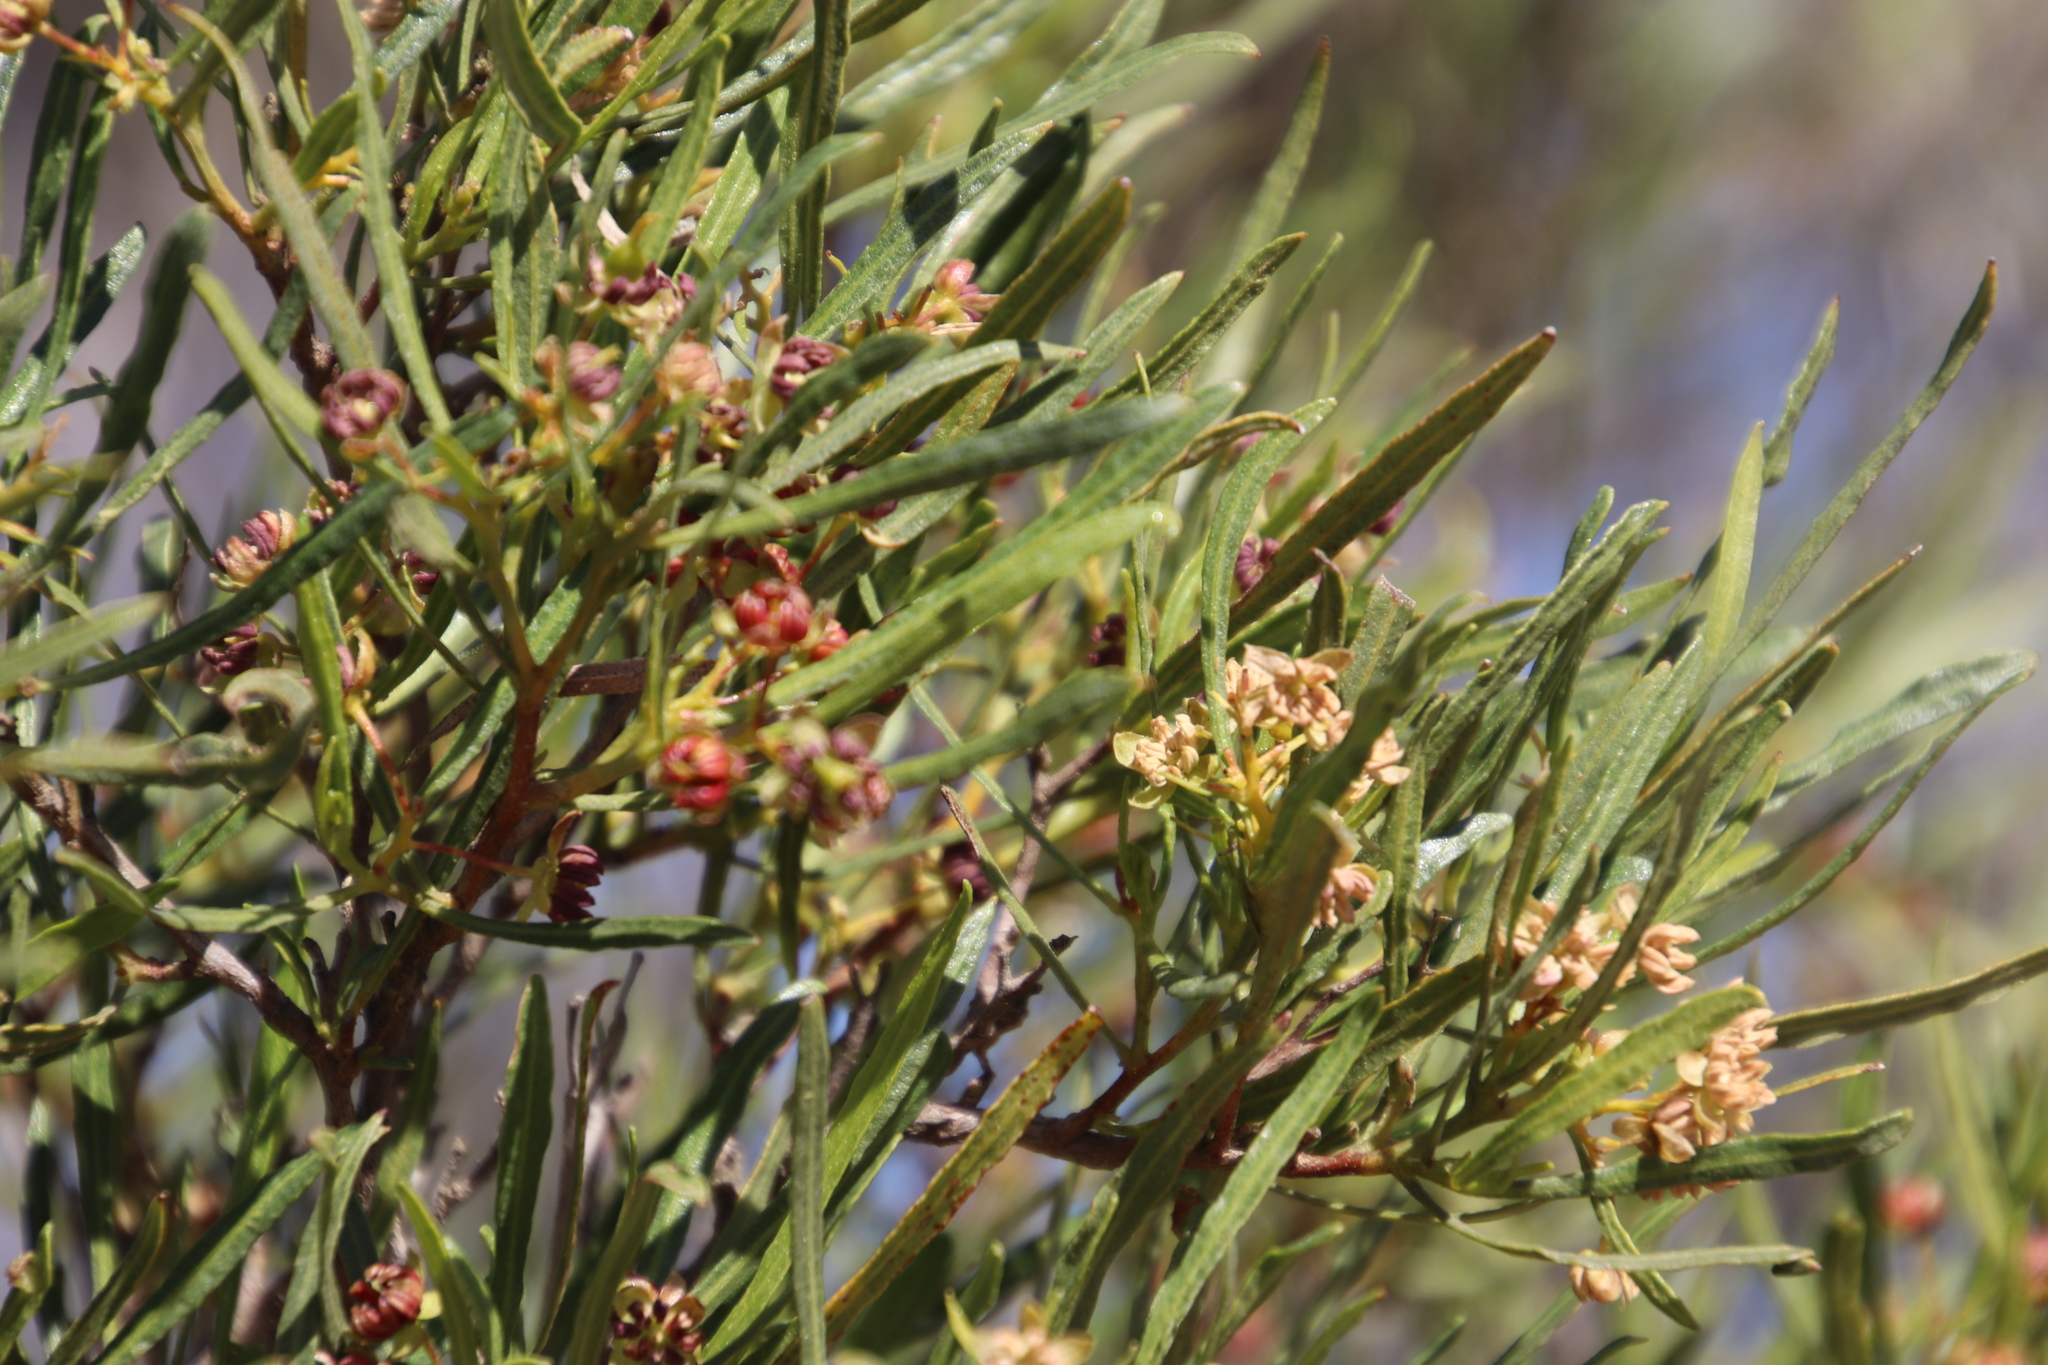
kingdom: Plantae
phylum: Tracheophyta
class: Magnoliopsida
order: Sapindales
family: Sapindaceae
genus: Dodonaea
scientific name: Dodonaea viscosa
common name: Hopbush
